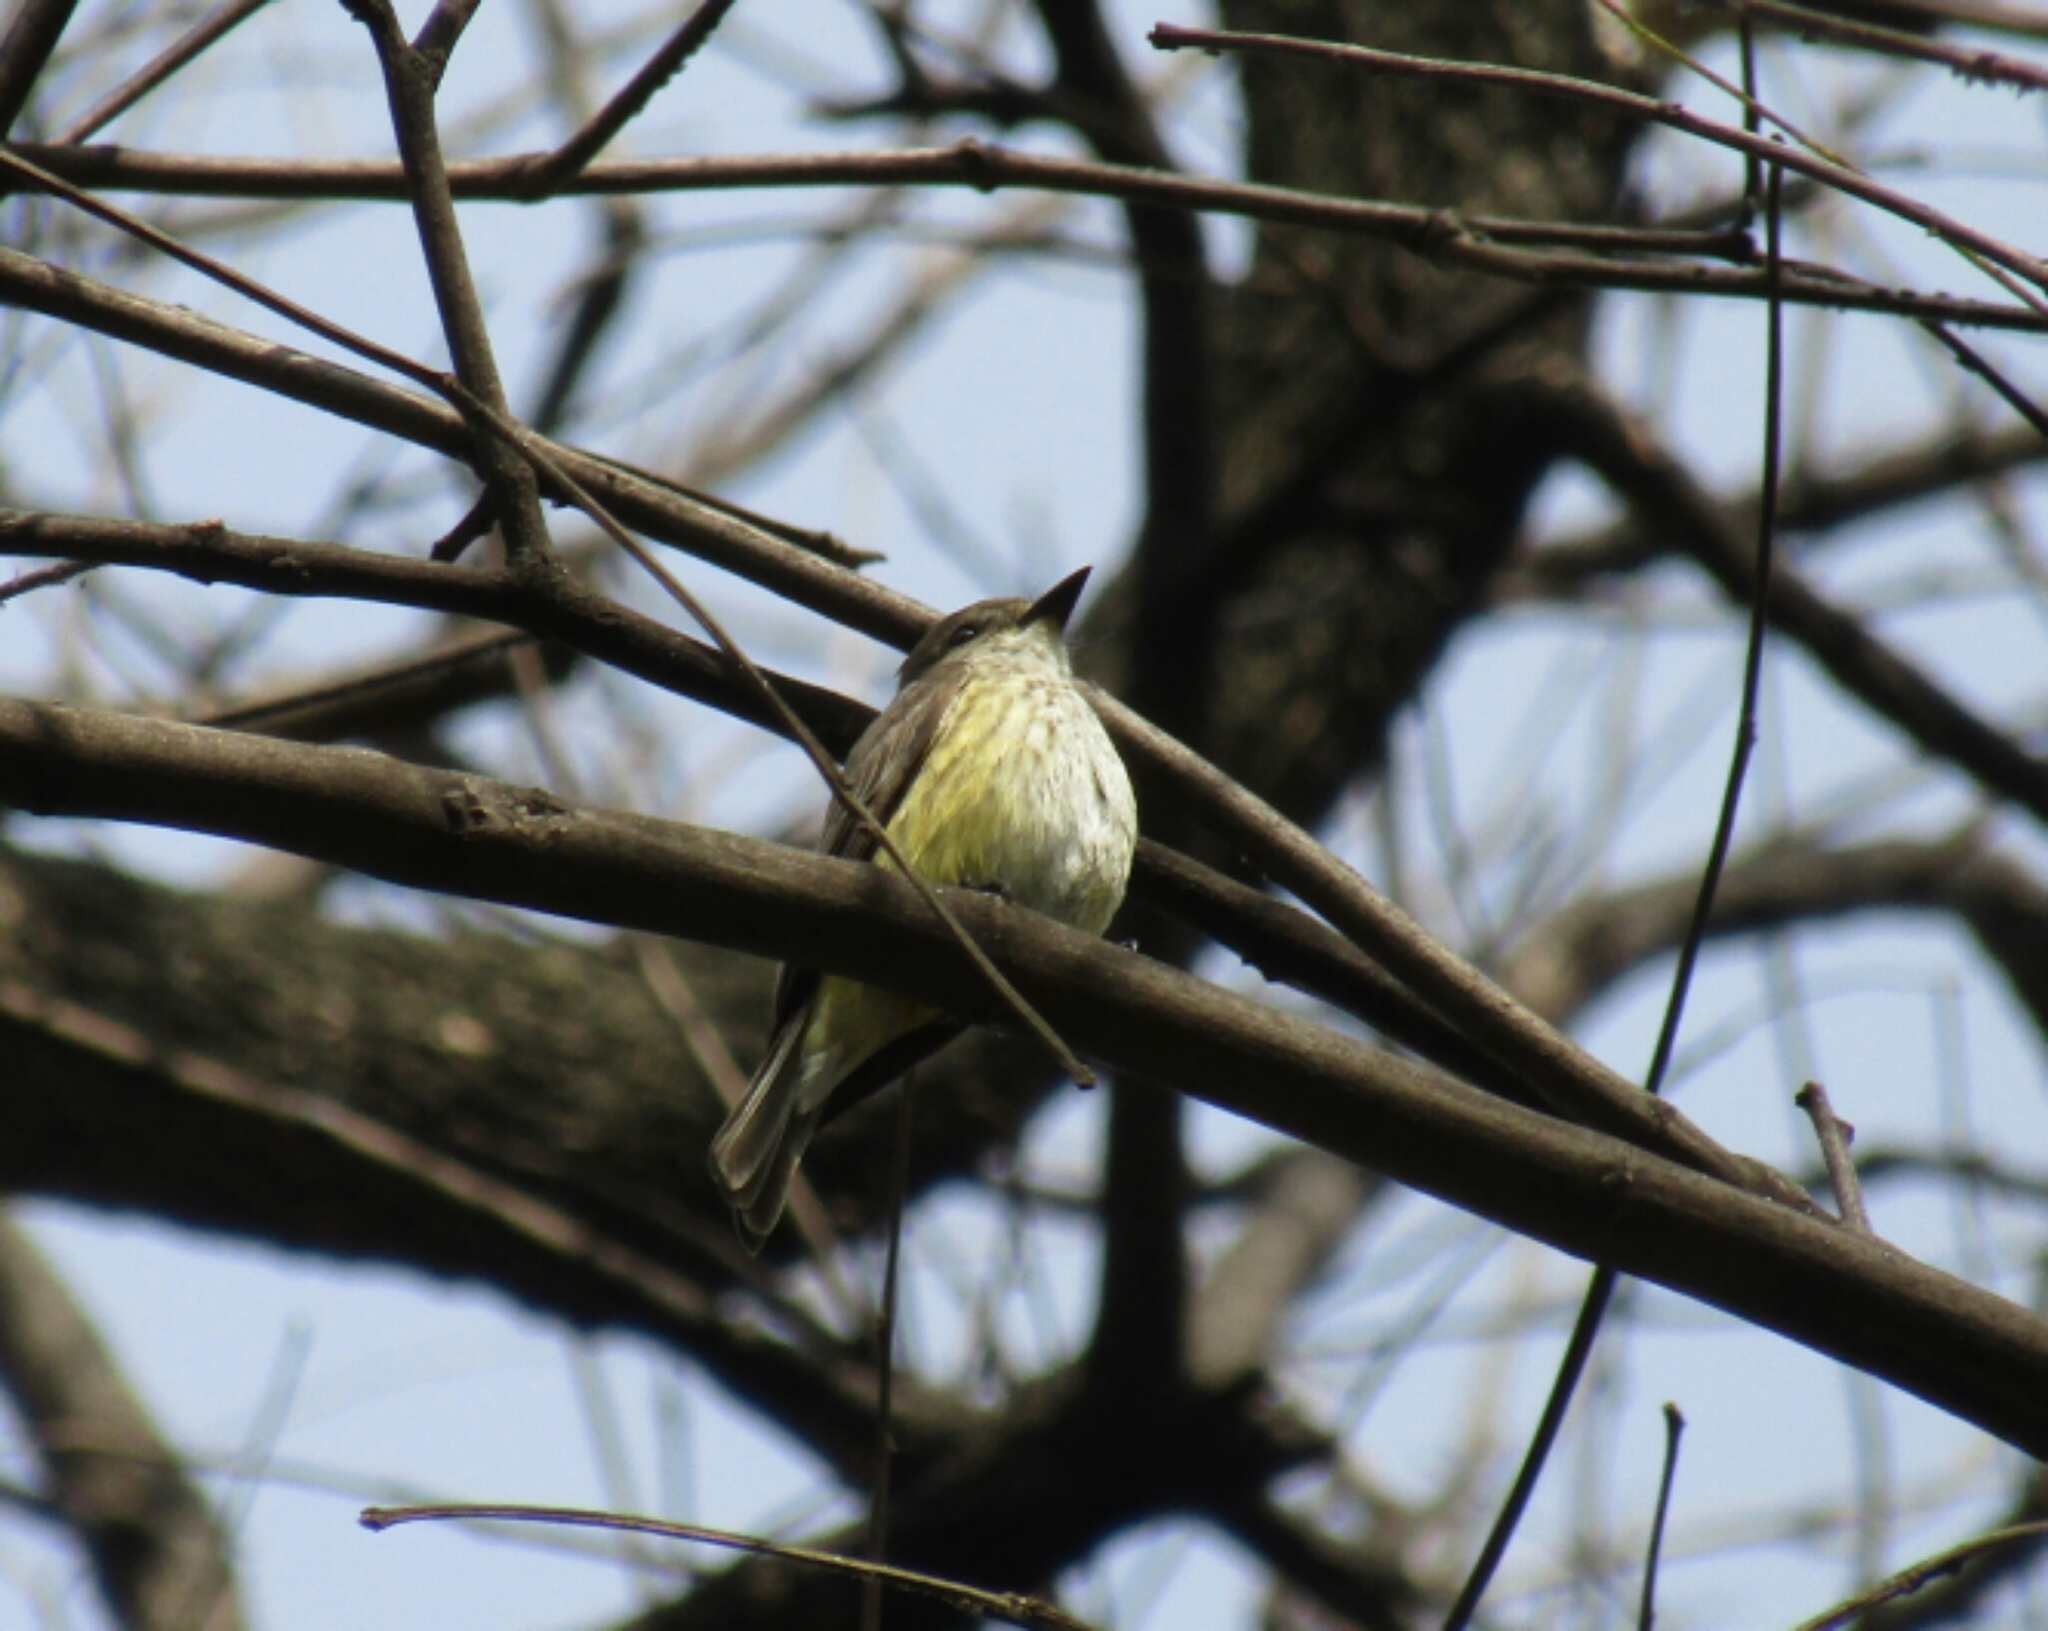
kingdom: Animalia
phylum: Chordata
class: Aves
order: Passeriformes
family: Tyrannidae
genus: Pyrocephalus
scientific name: Pyrocephalus rubinus
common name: Vermilion flycatcher
